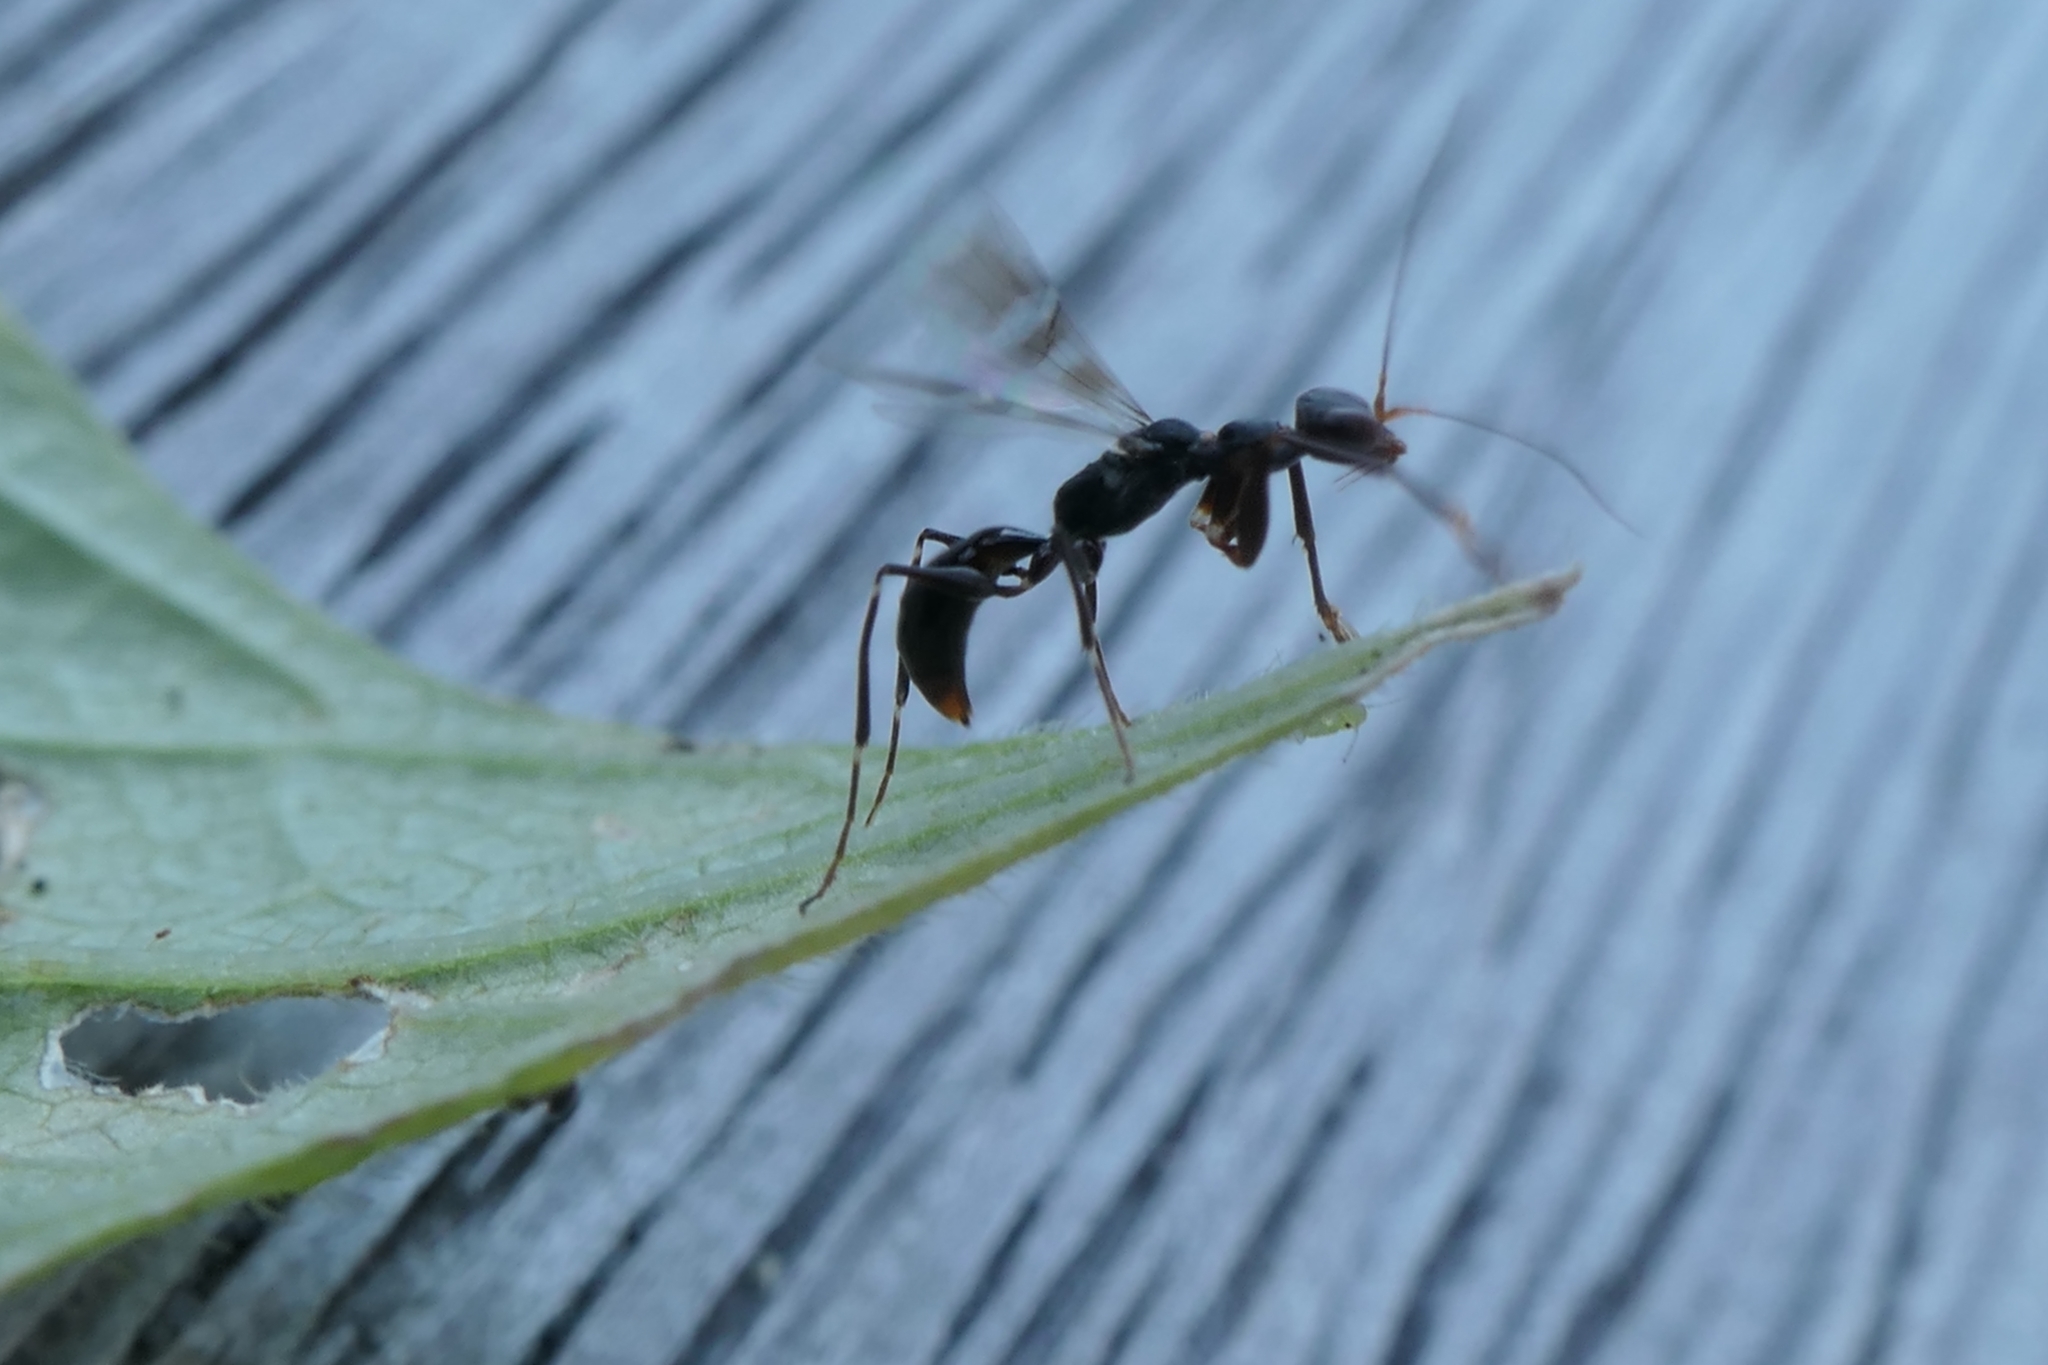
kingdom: Animalia
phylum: Arthropoda
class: Insecta
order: Hymenoptera
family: Dryinidae
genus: Dryinus
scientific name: Dryinus koebelei
